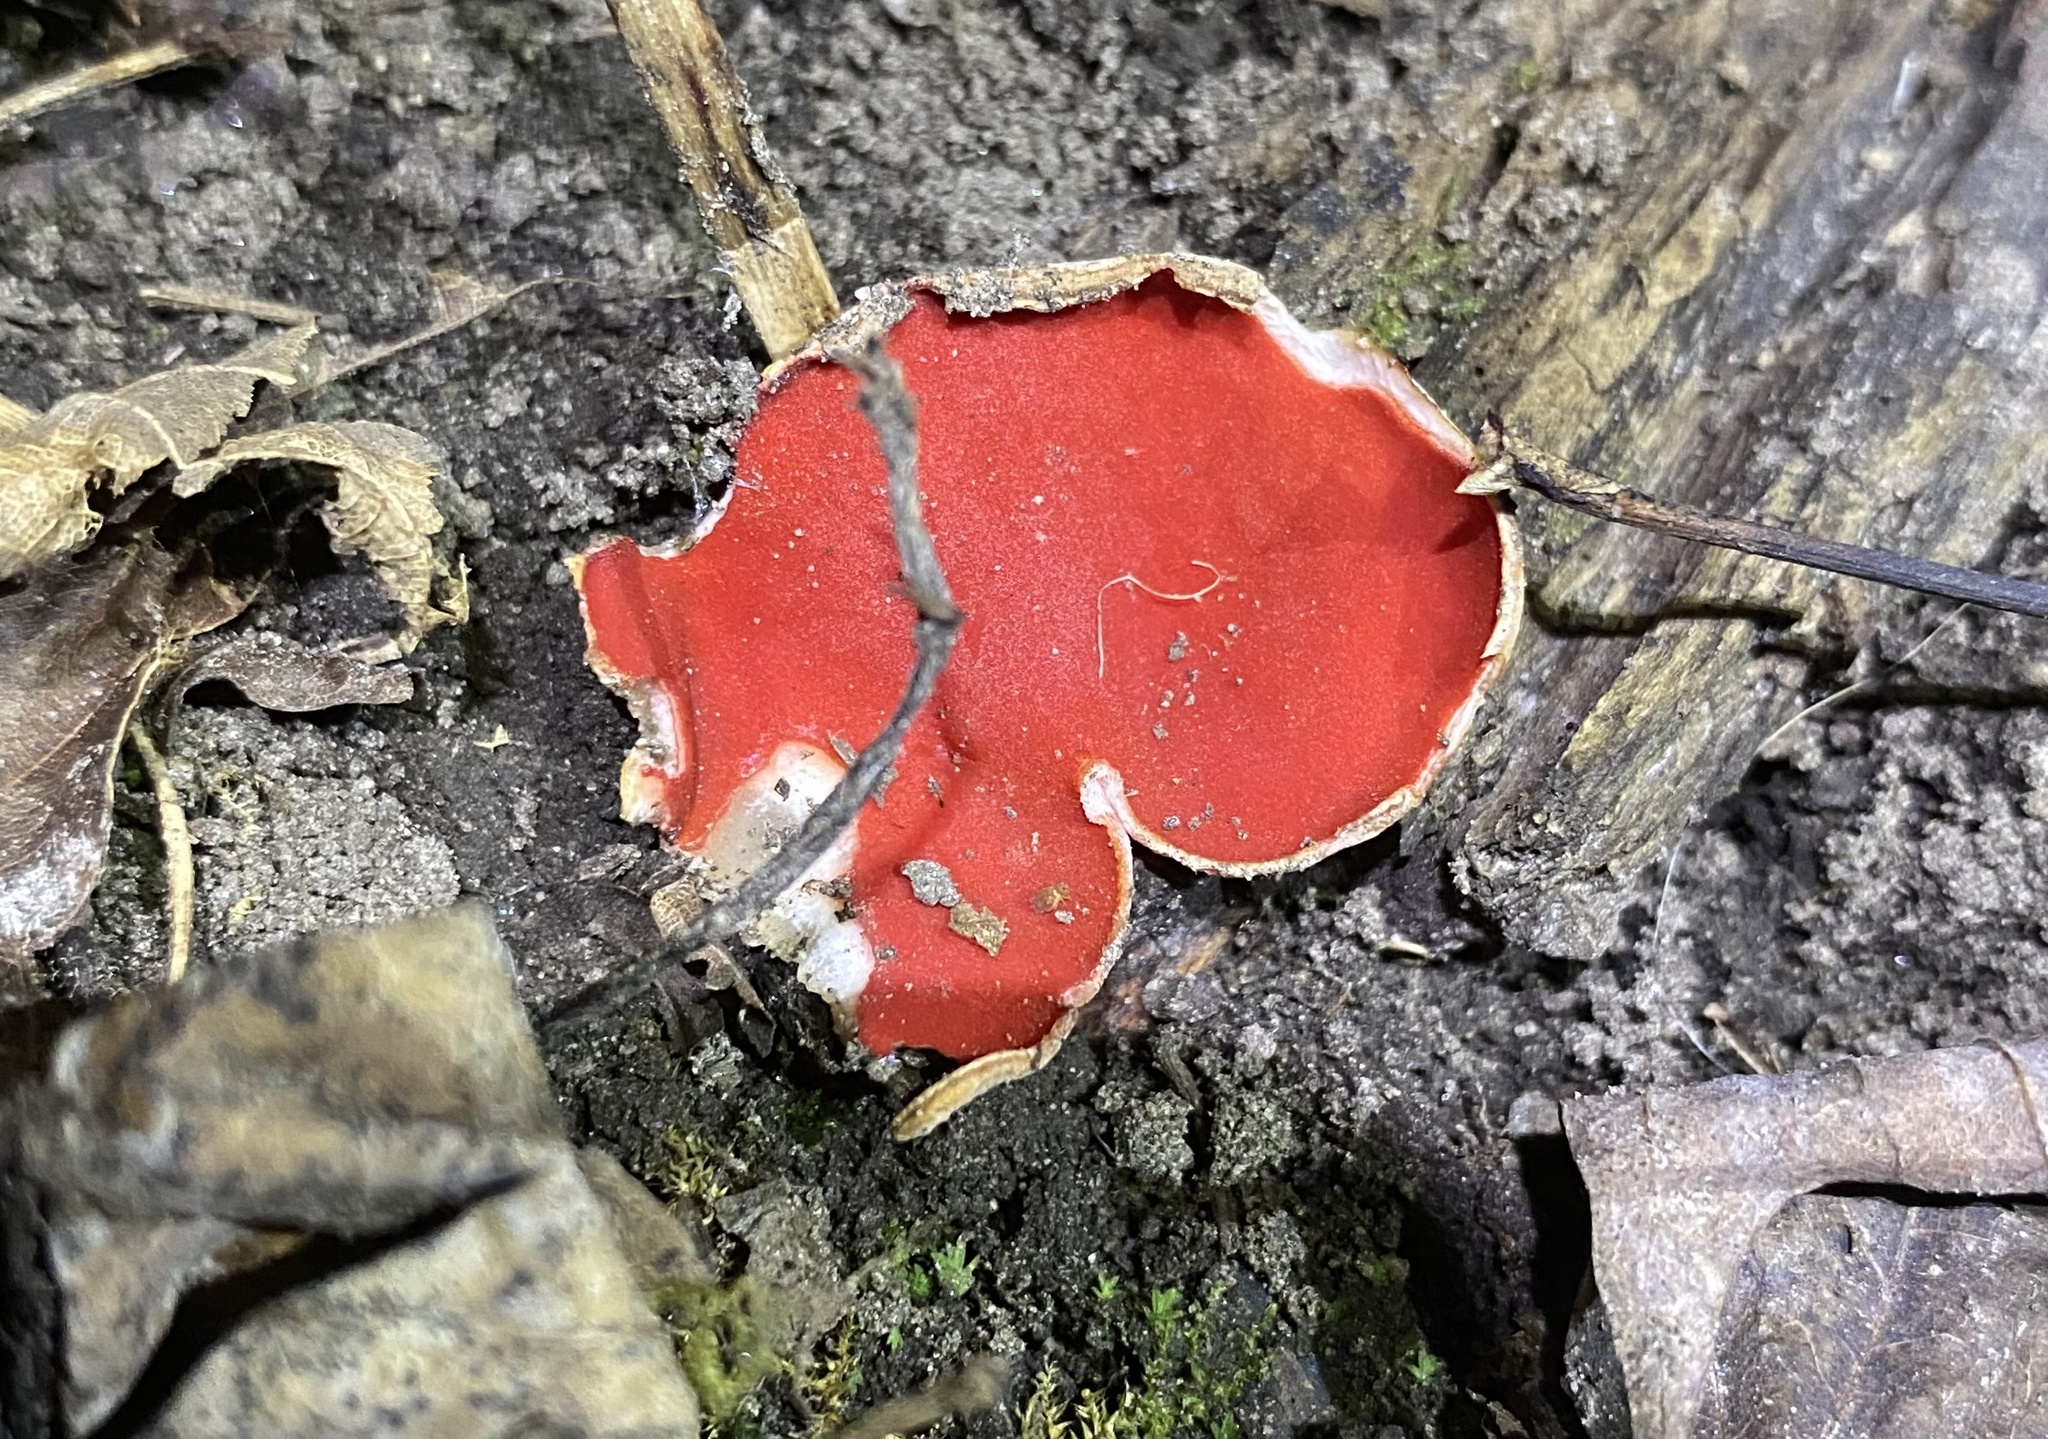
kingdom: Fungi
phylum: Ascomycota
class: Pezizomycetes
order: Pezizales
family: Sarcoscyphaceae
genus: Sarcoscypha
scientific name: Sarcoscypha austriaca
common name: Scarlet elfcup
